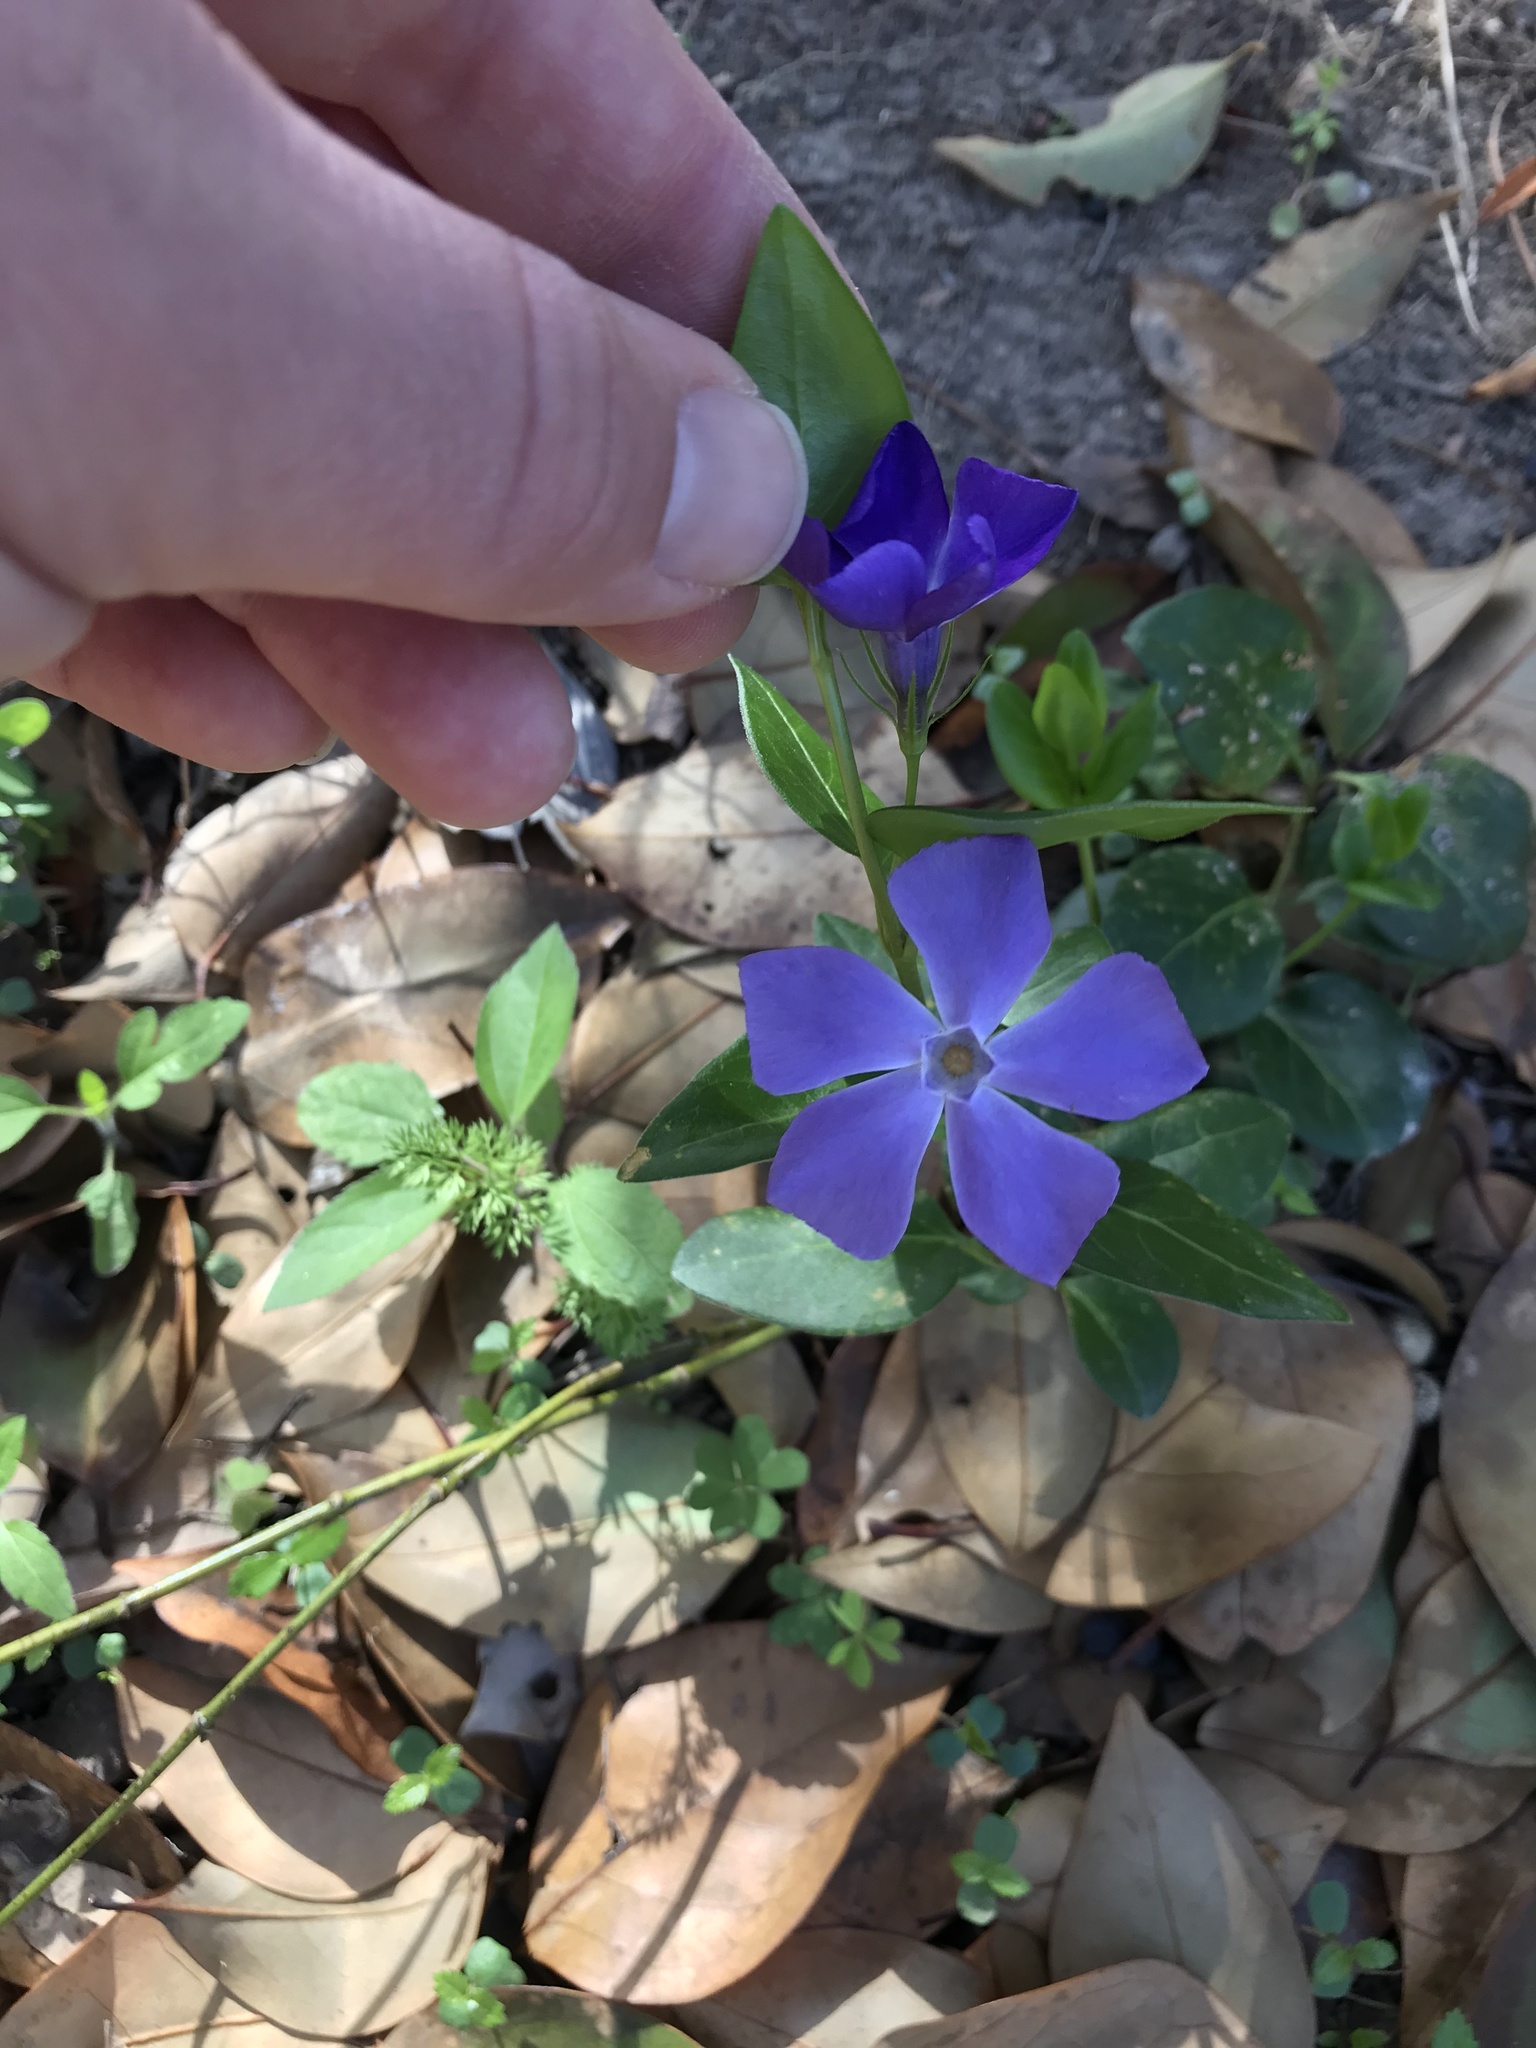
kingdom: Plantae
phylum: Tracheophyta
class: Magnoliopsida
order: Gentianales
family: Apocynaceae
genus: Vinca
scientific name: Vinca major
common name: Greater periwinkle
